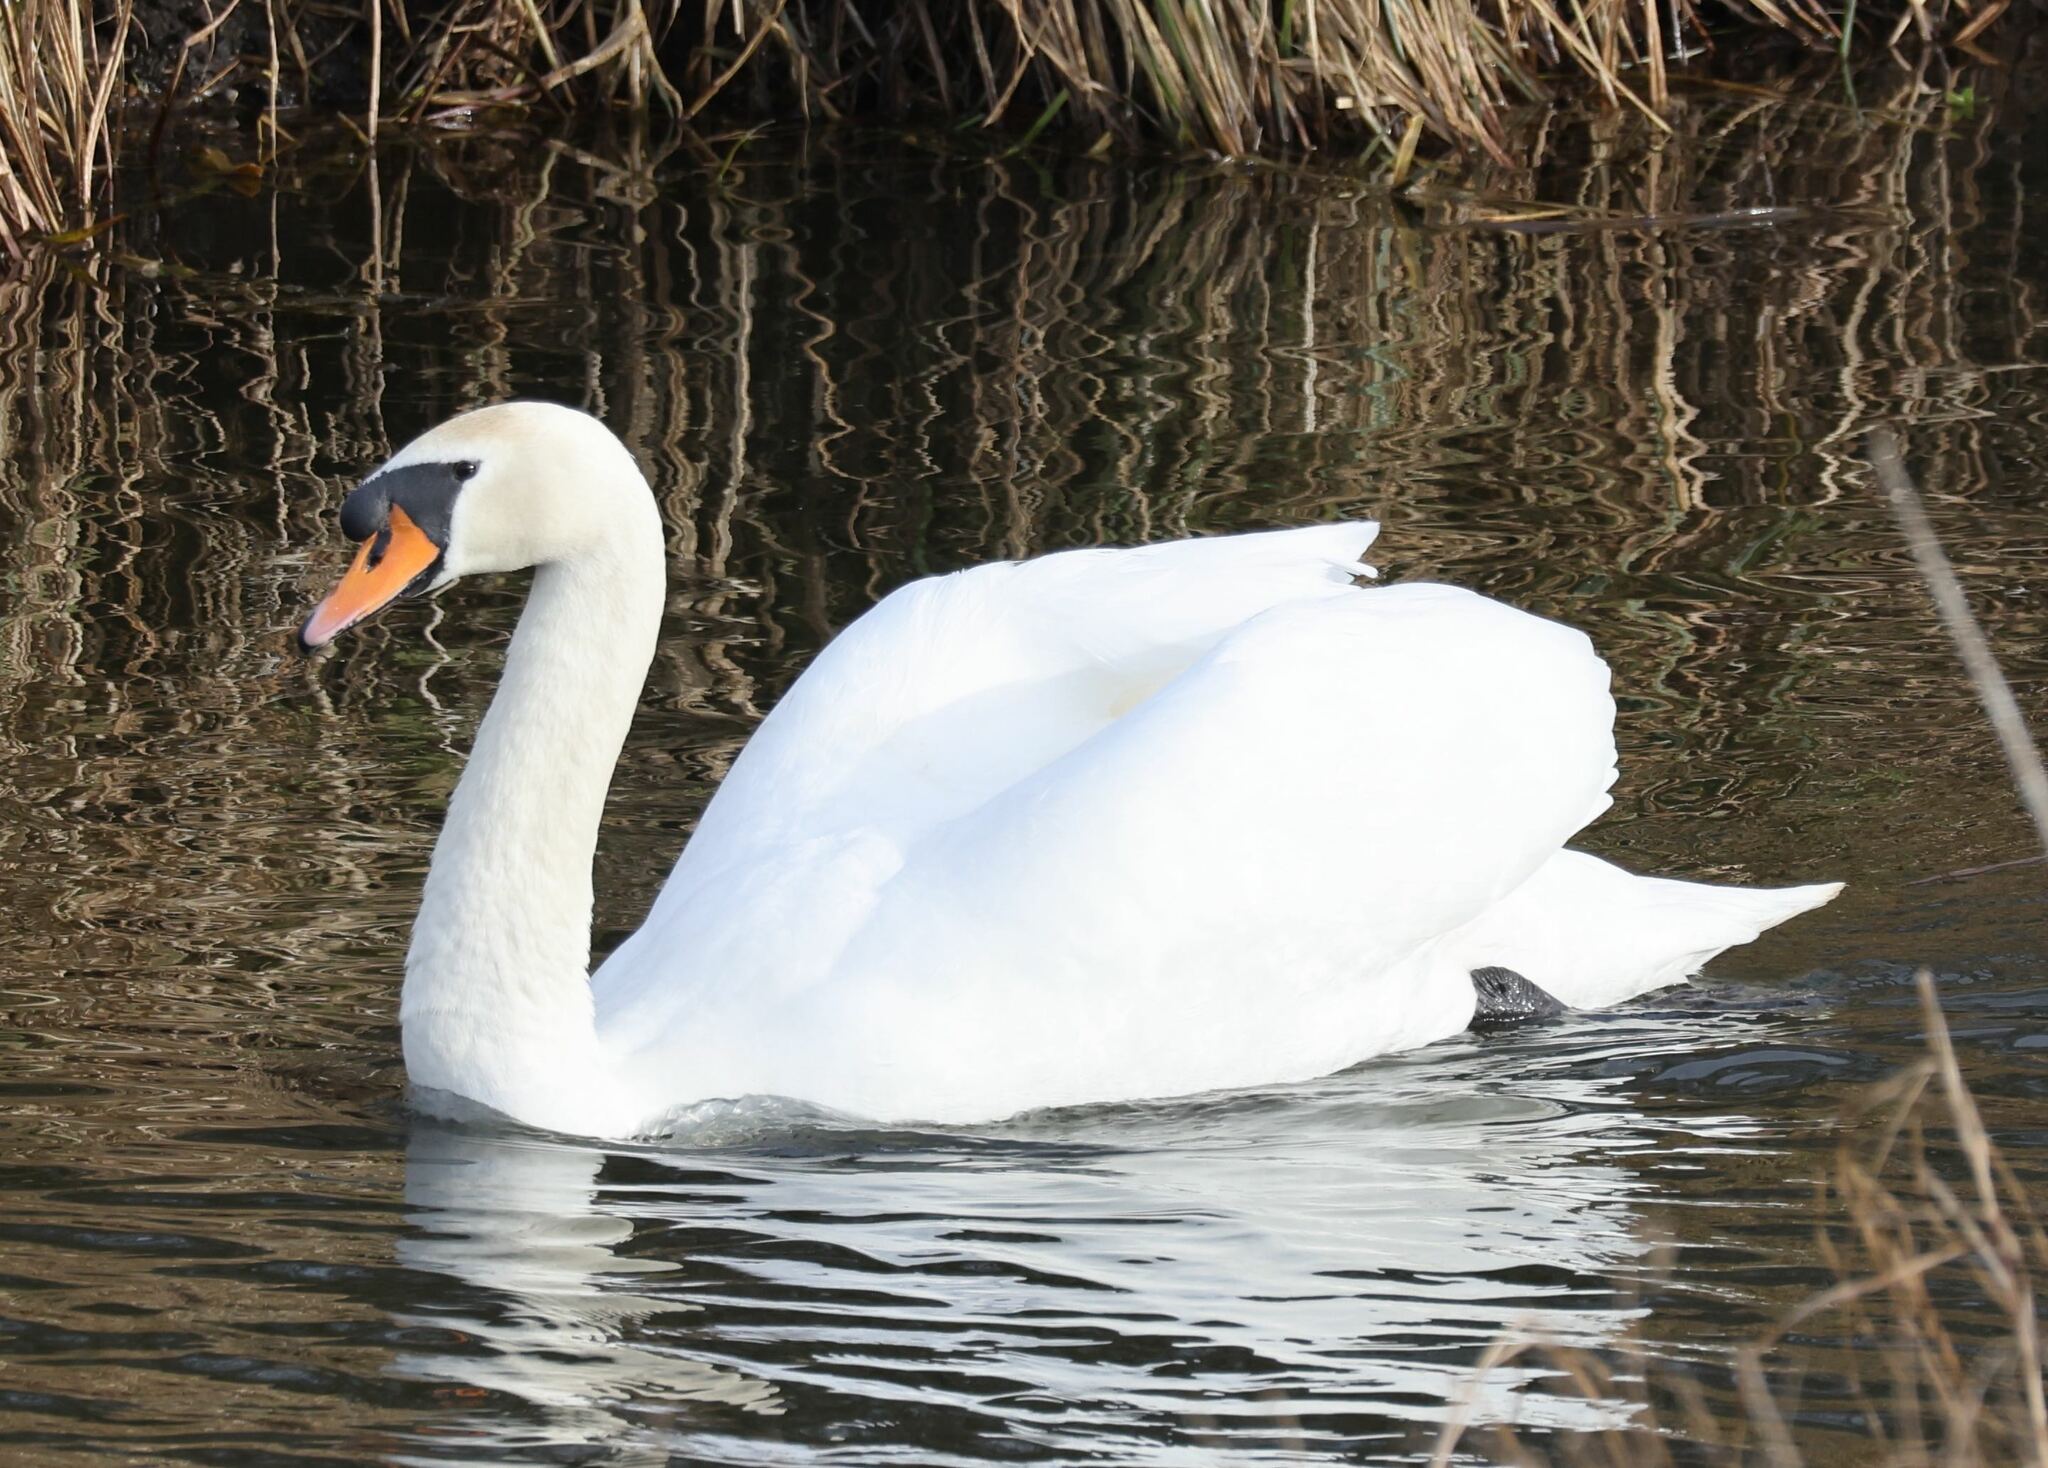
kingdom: Animalia
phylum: Chordata
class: Aves
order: Anseriformes
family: Anatidae
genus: Cygnus
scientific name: Cygnus olor
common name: Mute swan
